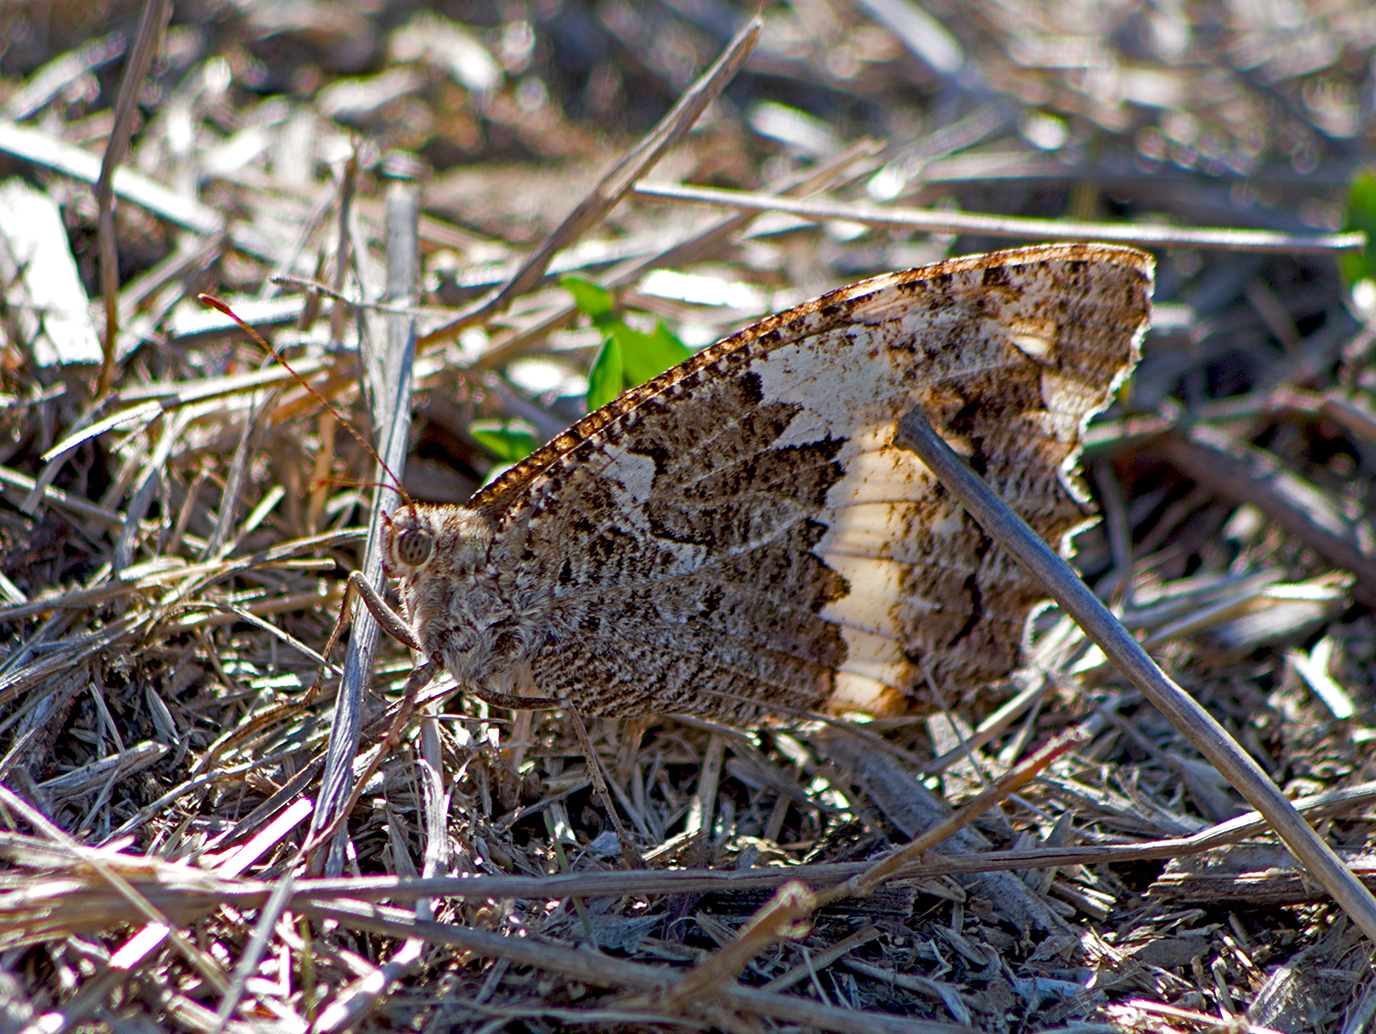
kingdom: Animalia
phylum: Arthropoda
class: Insecta
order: Lepidoptera
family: Lycaenidae
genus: Loweia
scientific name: Loweia tityrus
